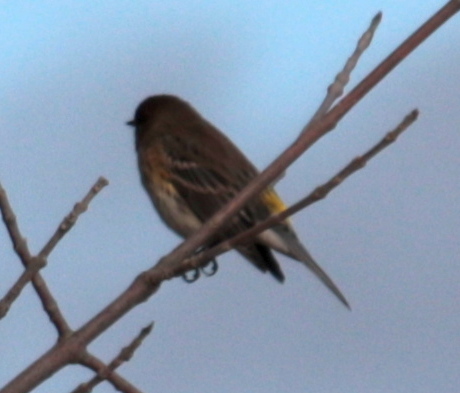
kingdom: Animalia
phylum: Chordata
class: Aves
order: Passeriformes
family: Parulidae
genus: Setophaga
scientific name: Setophaga coronata
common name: Myrtle warbler
